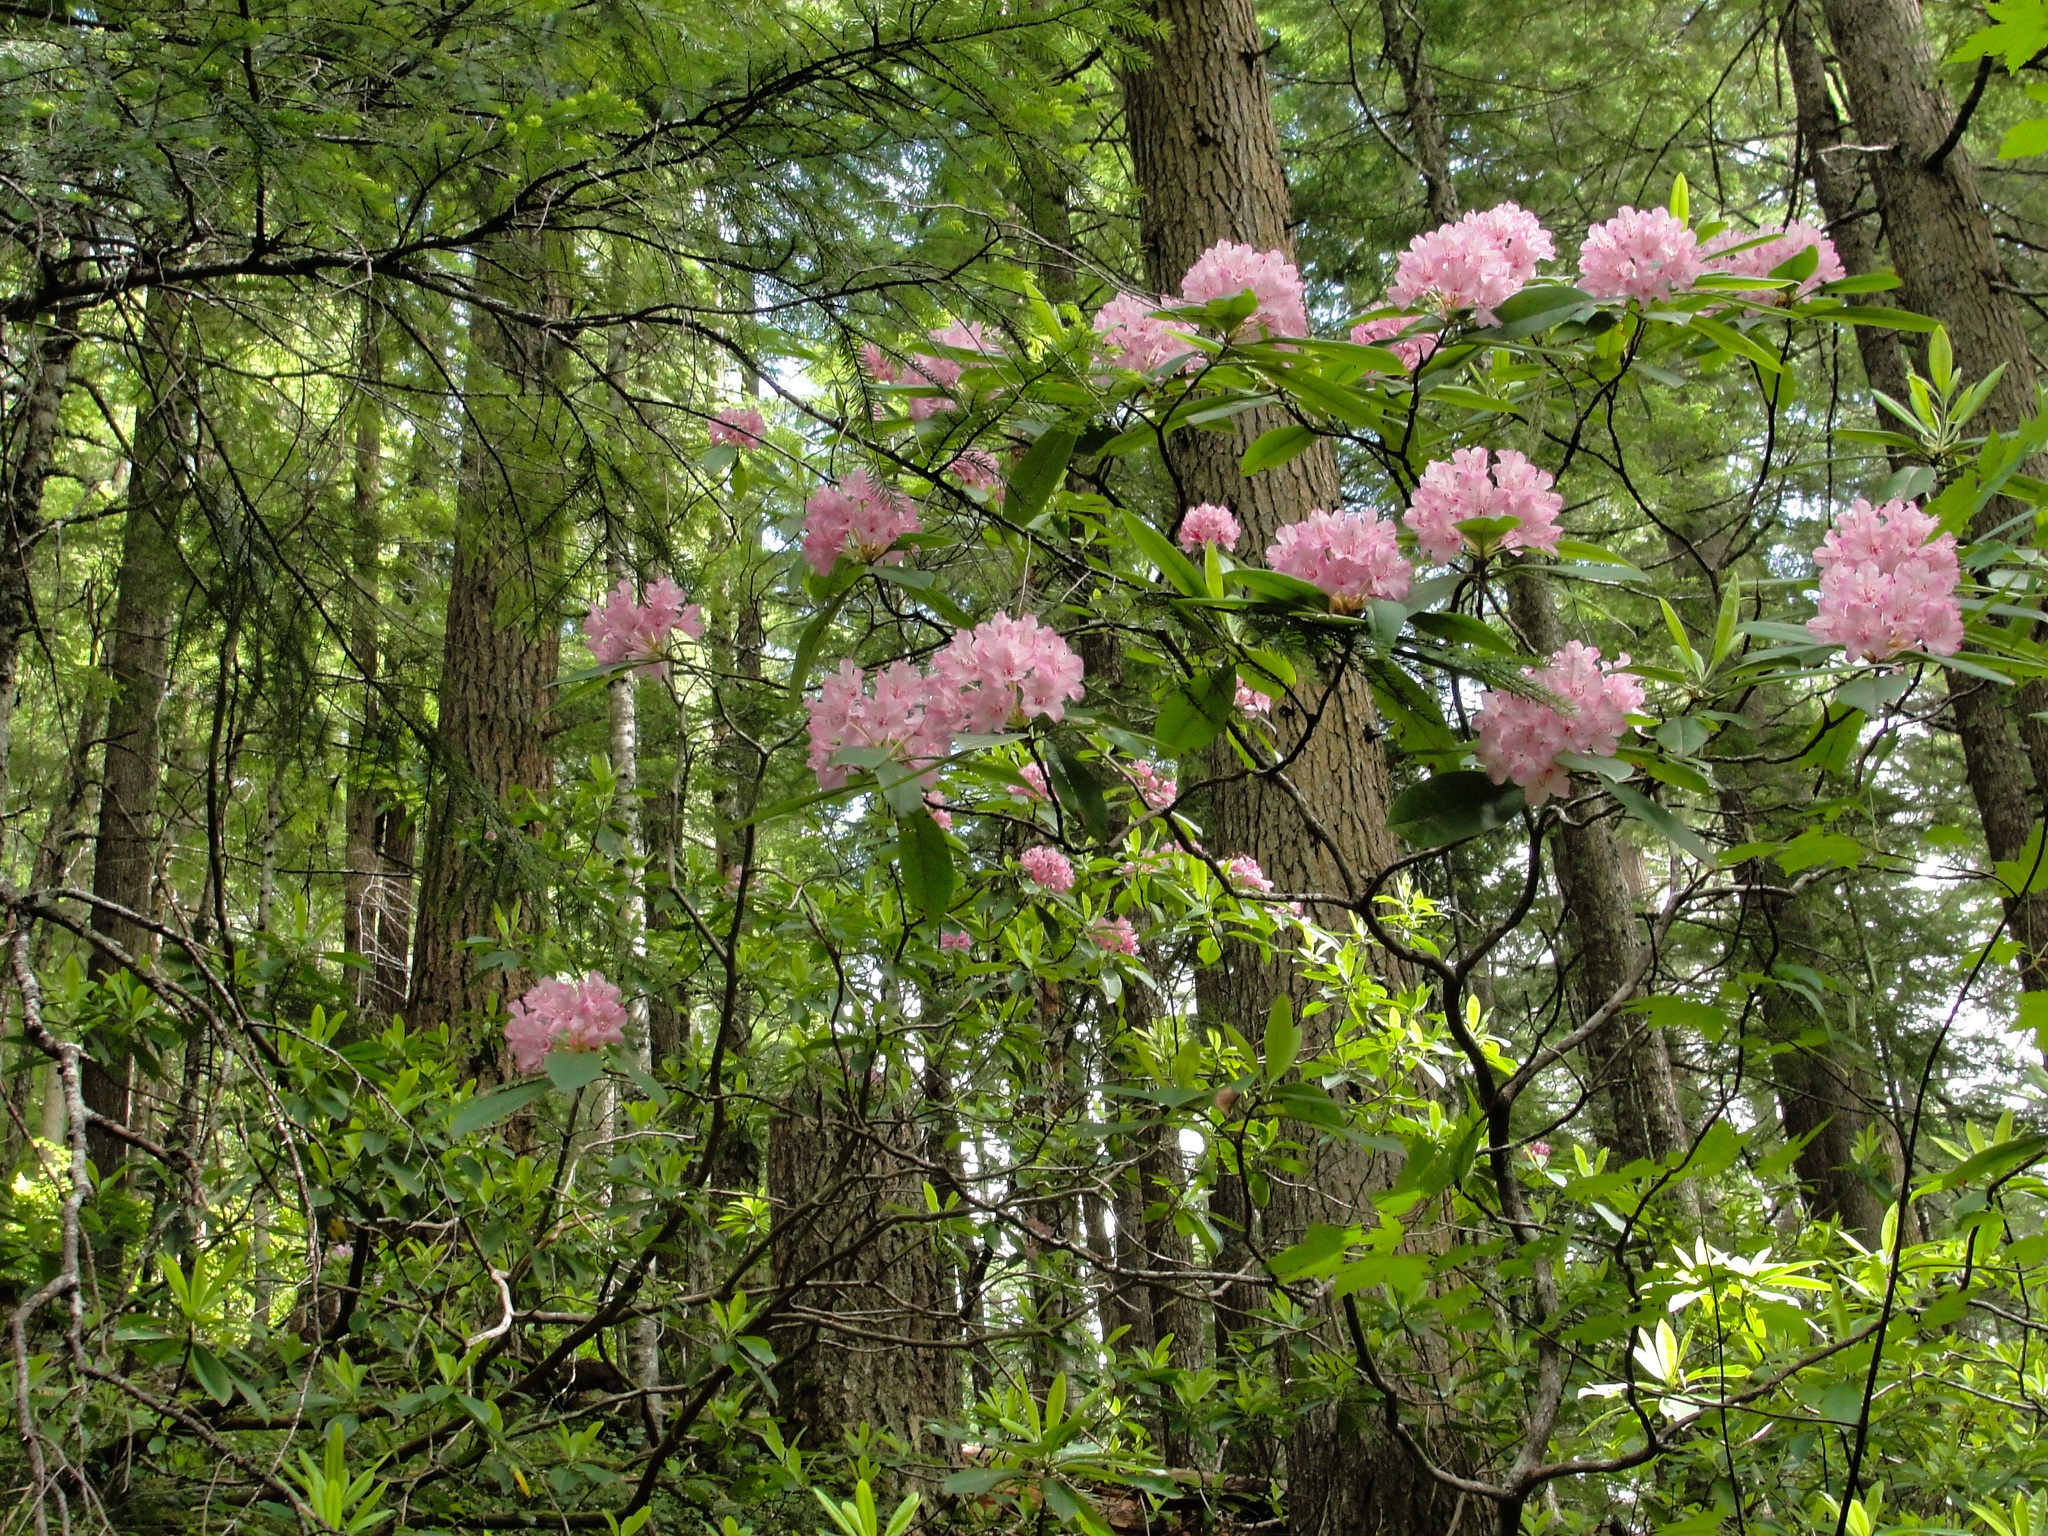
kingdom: Plantae
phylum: Tracheophyta
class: Magnoliopsida
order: Ericales
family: Ericaceae
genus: Rhododendron
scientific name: Rhododendron macrophyllum
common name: California rose bay
